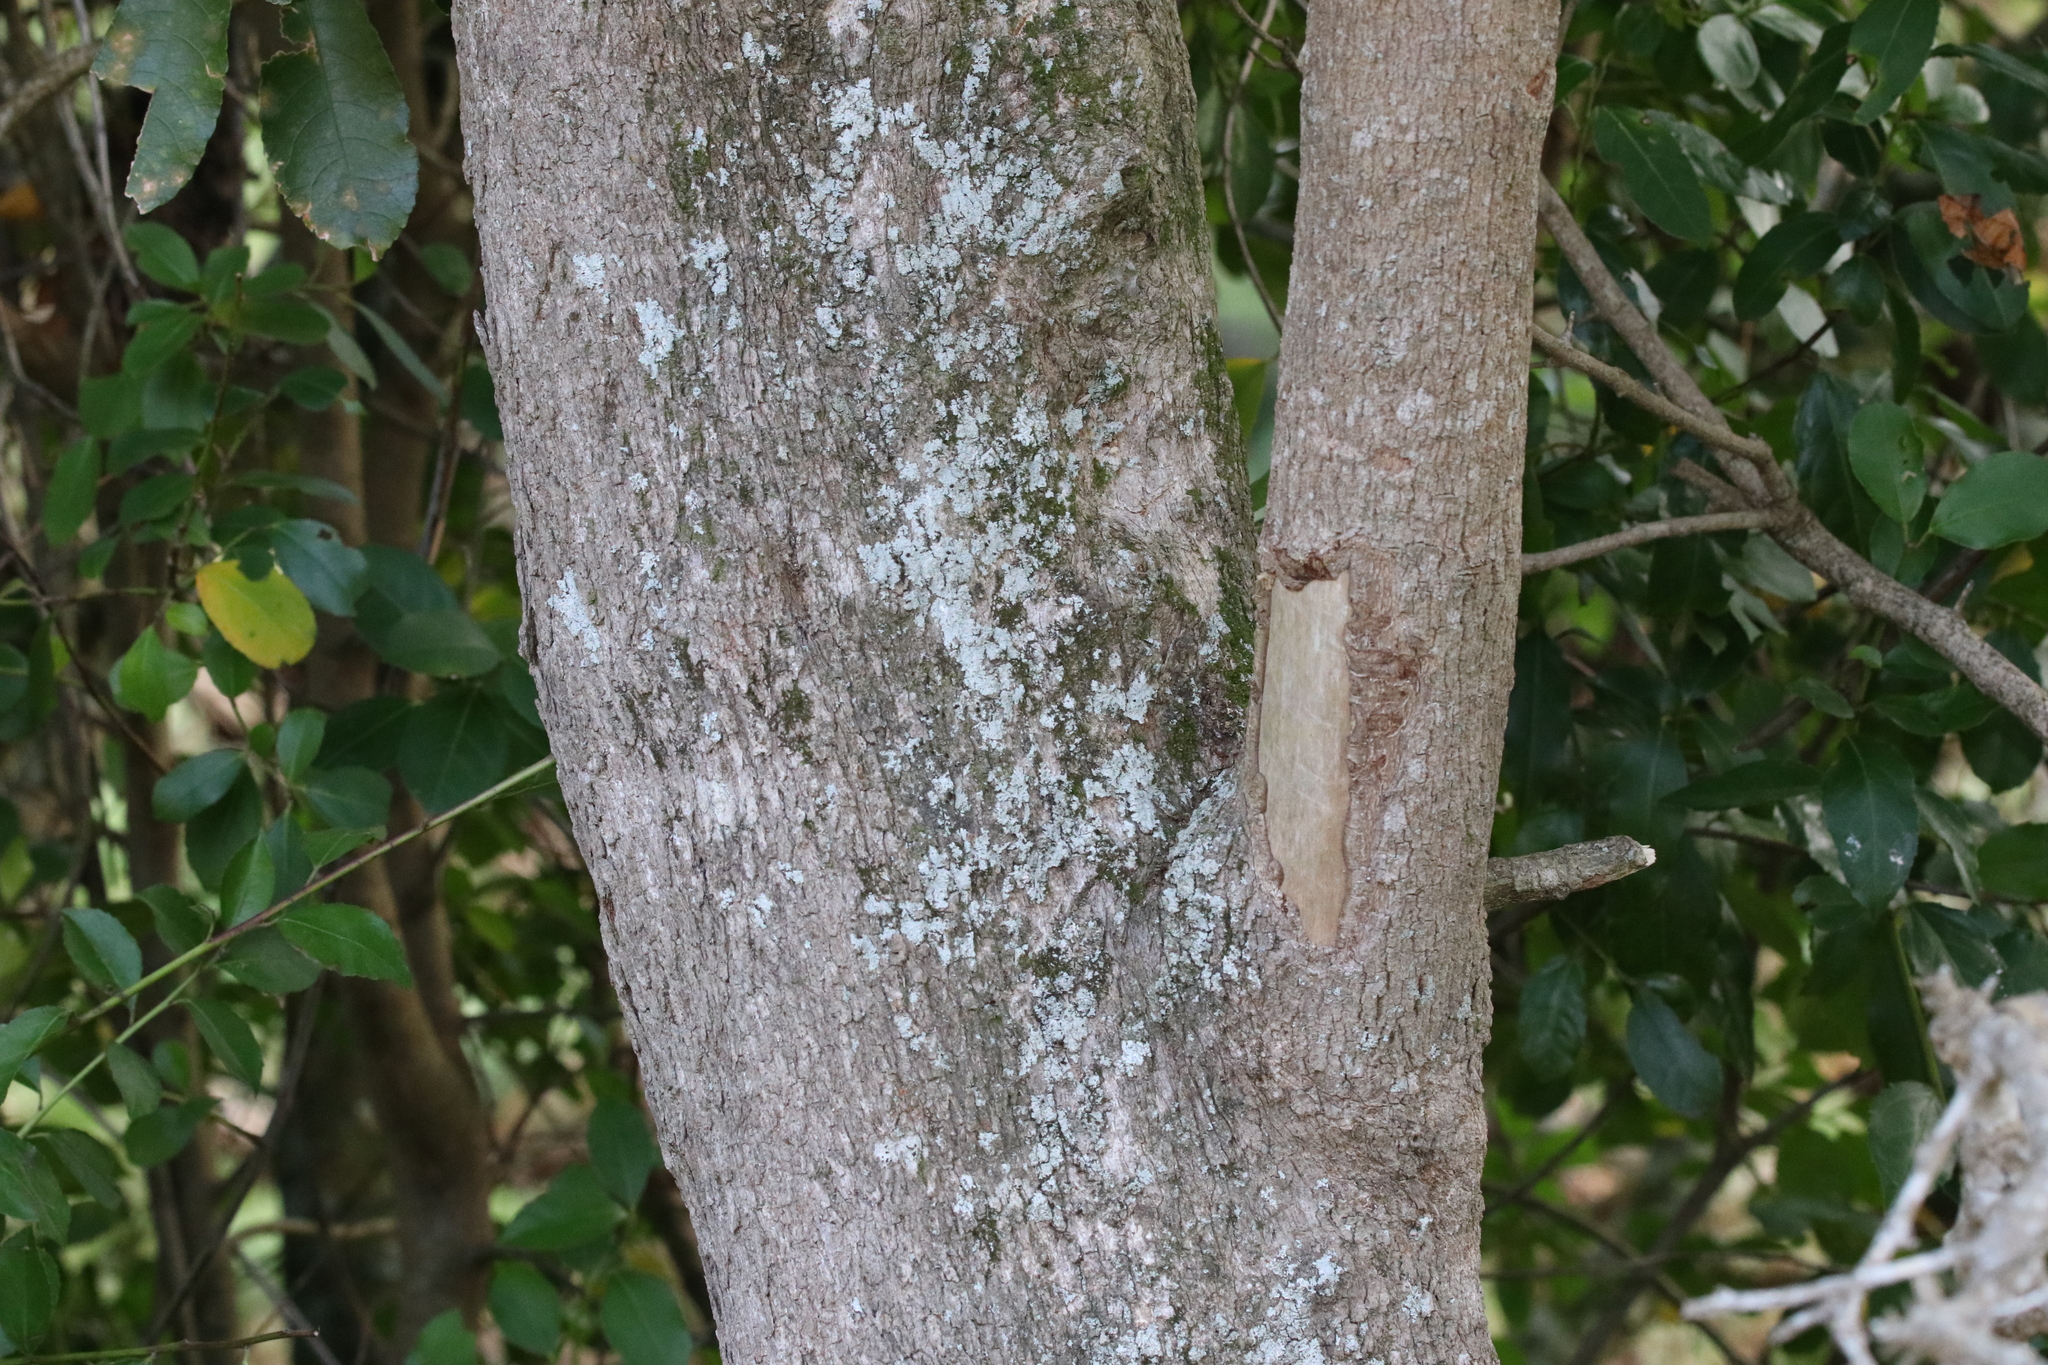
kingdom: Plantae
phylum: Tracheophyta
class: Magnoliopsida
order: Apiales
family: Pennantiaceae
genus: Pennantia
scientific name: Pennantia corymbosa
